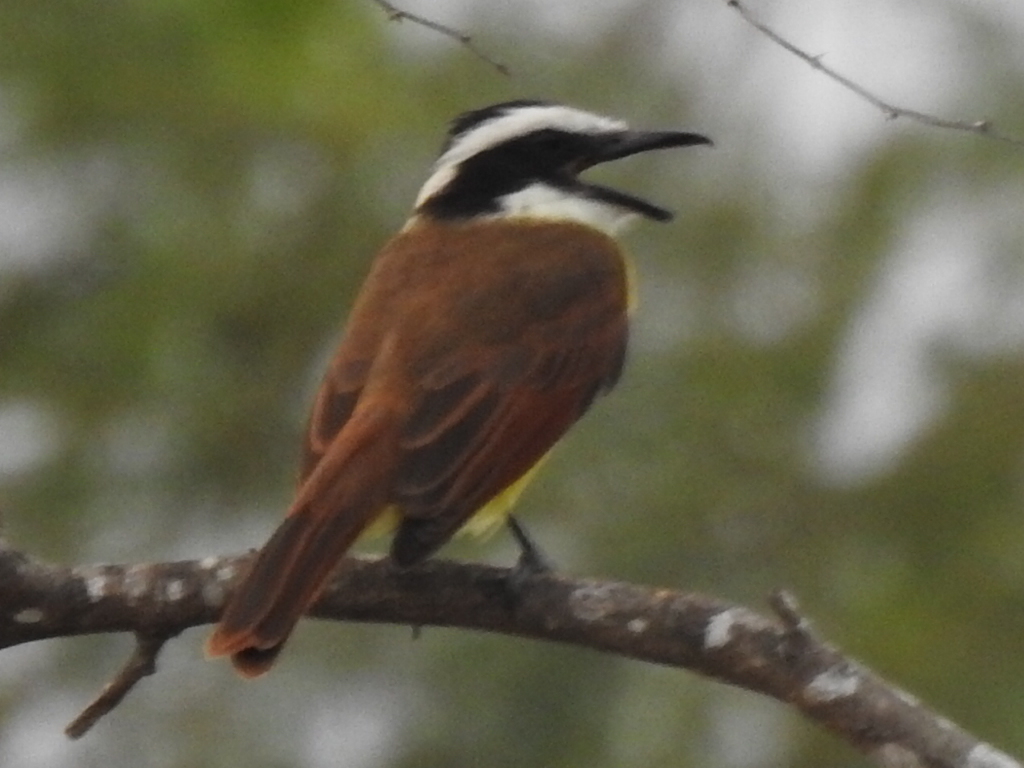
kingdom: Animalia
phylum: Chordata
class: Aves
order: Passeriformes
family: Tyrannidae
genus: Pitangus
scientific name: Pitangus sulphuratus
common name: Great kiskadee
